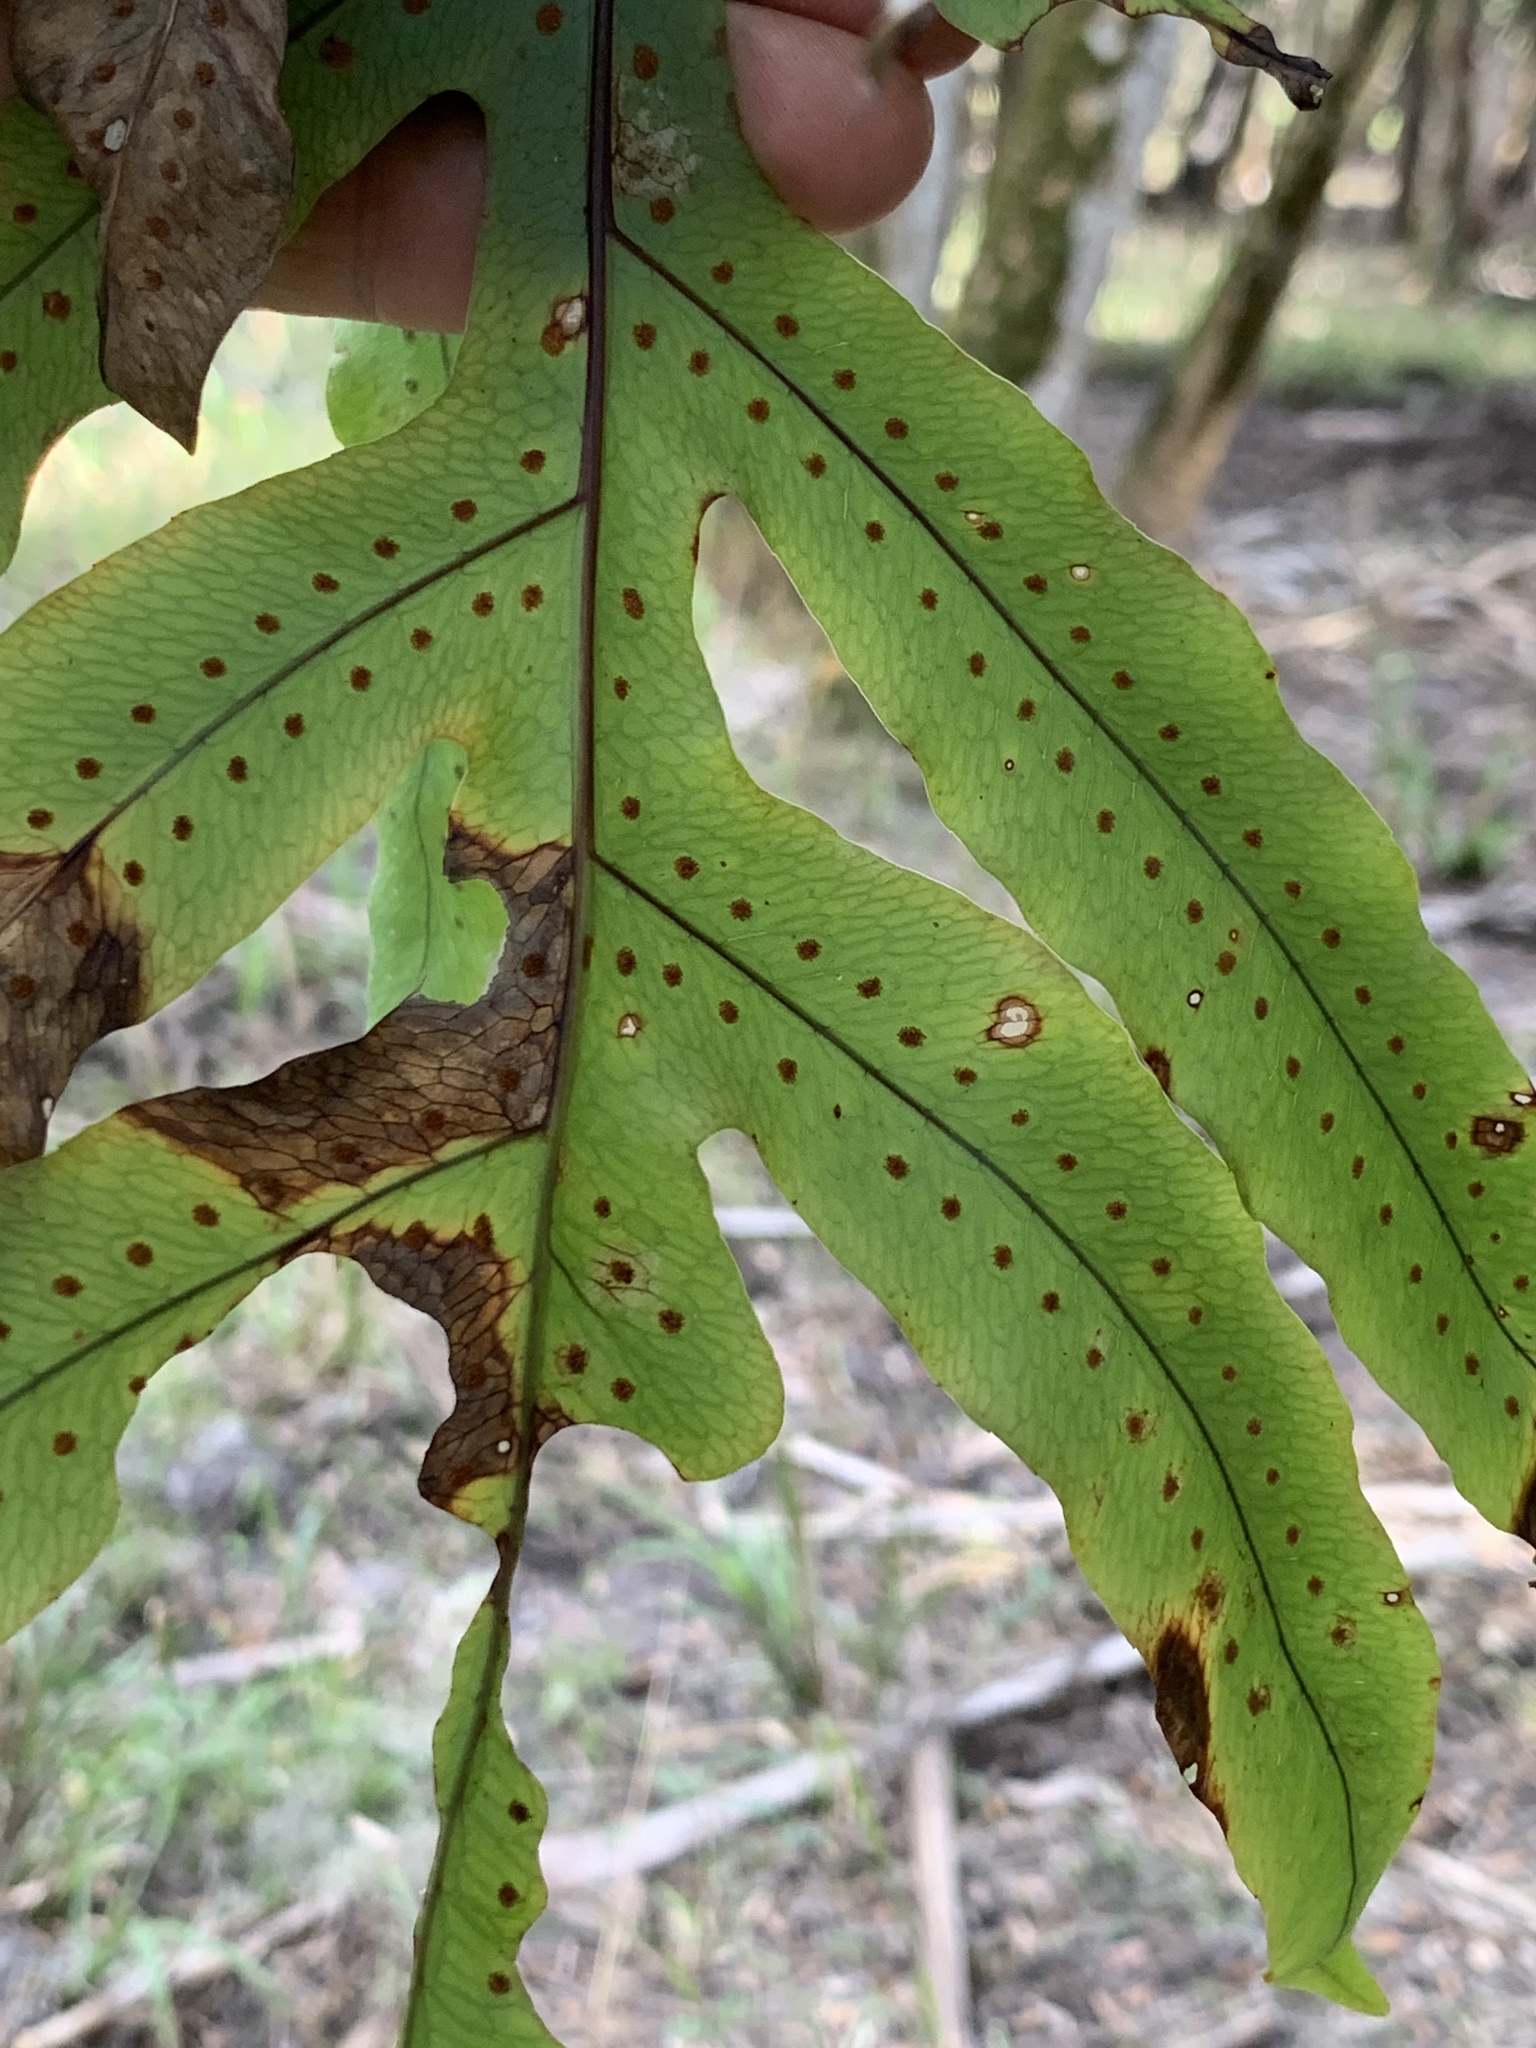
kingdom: Plantae
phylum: Tracheophyta
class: Polypodiopsida
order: Polypodiales
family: Polypodiaceae
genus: Phlebodium
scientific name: Phlebodium aureum
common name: Gold-foot fern
